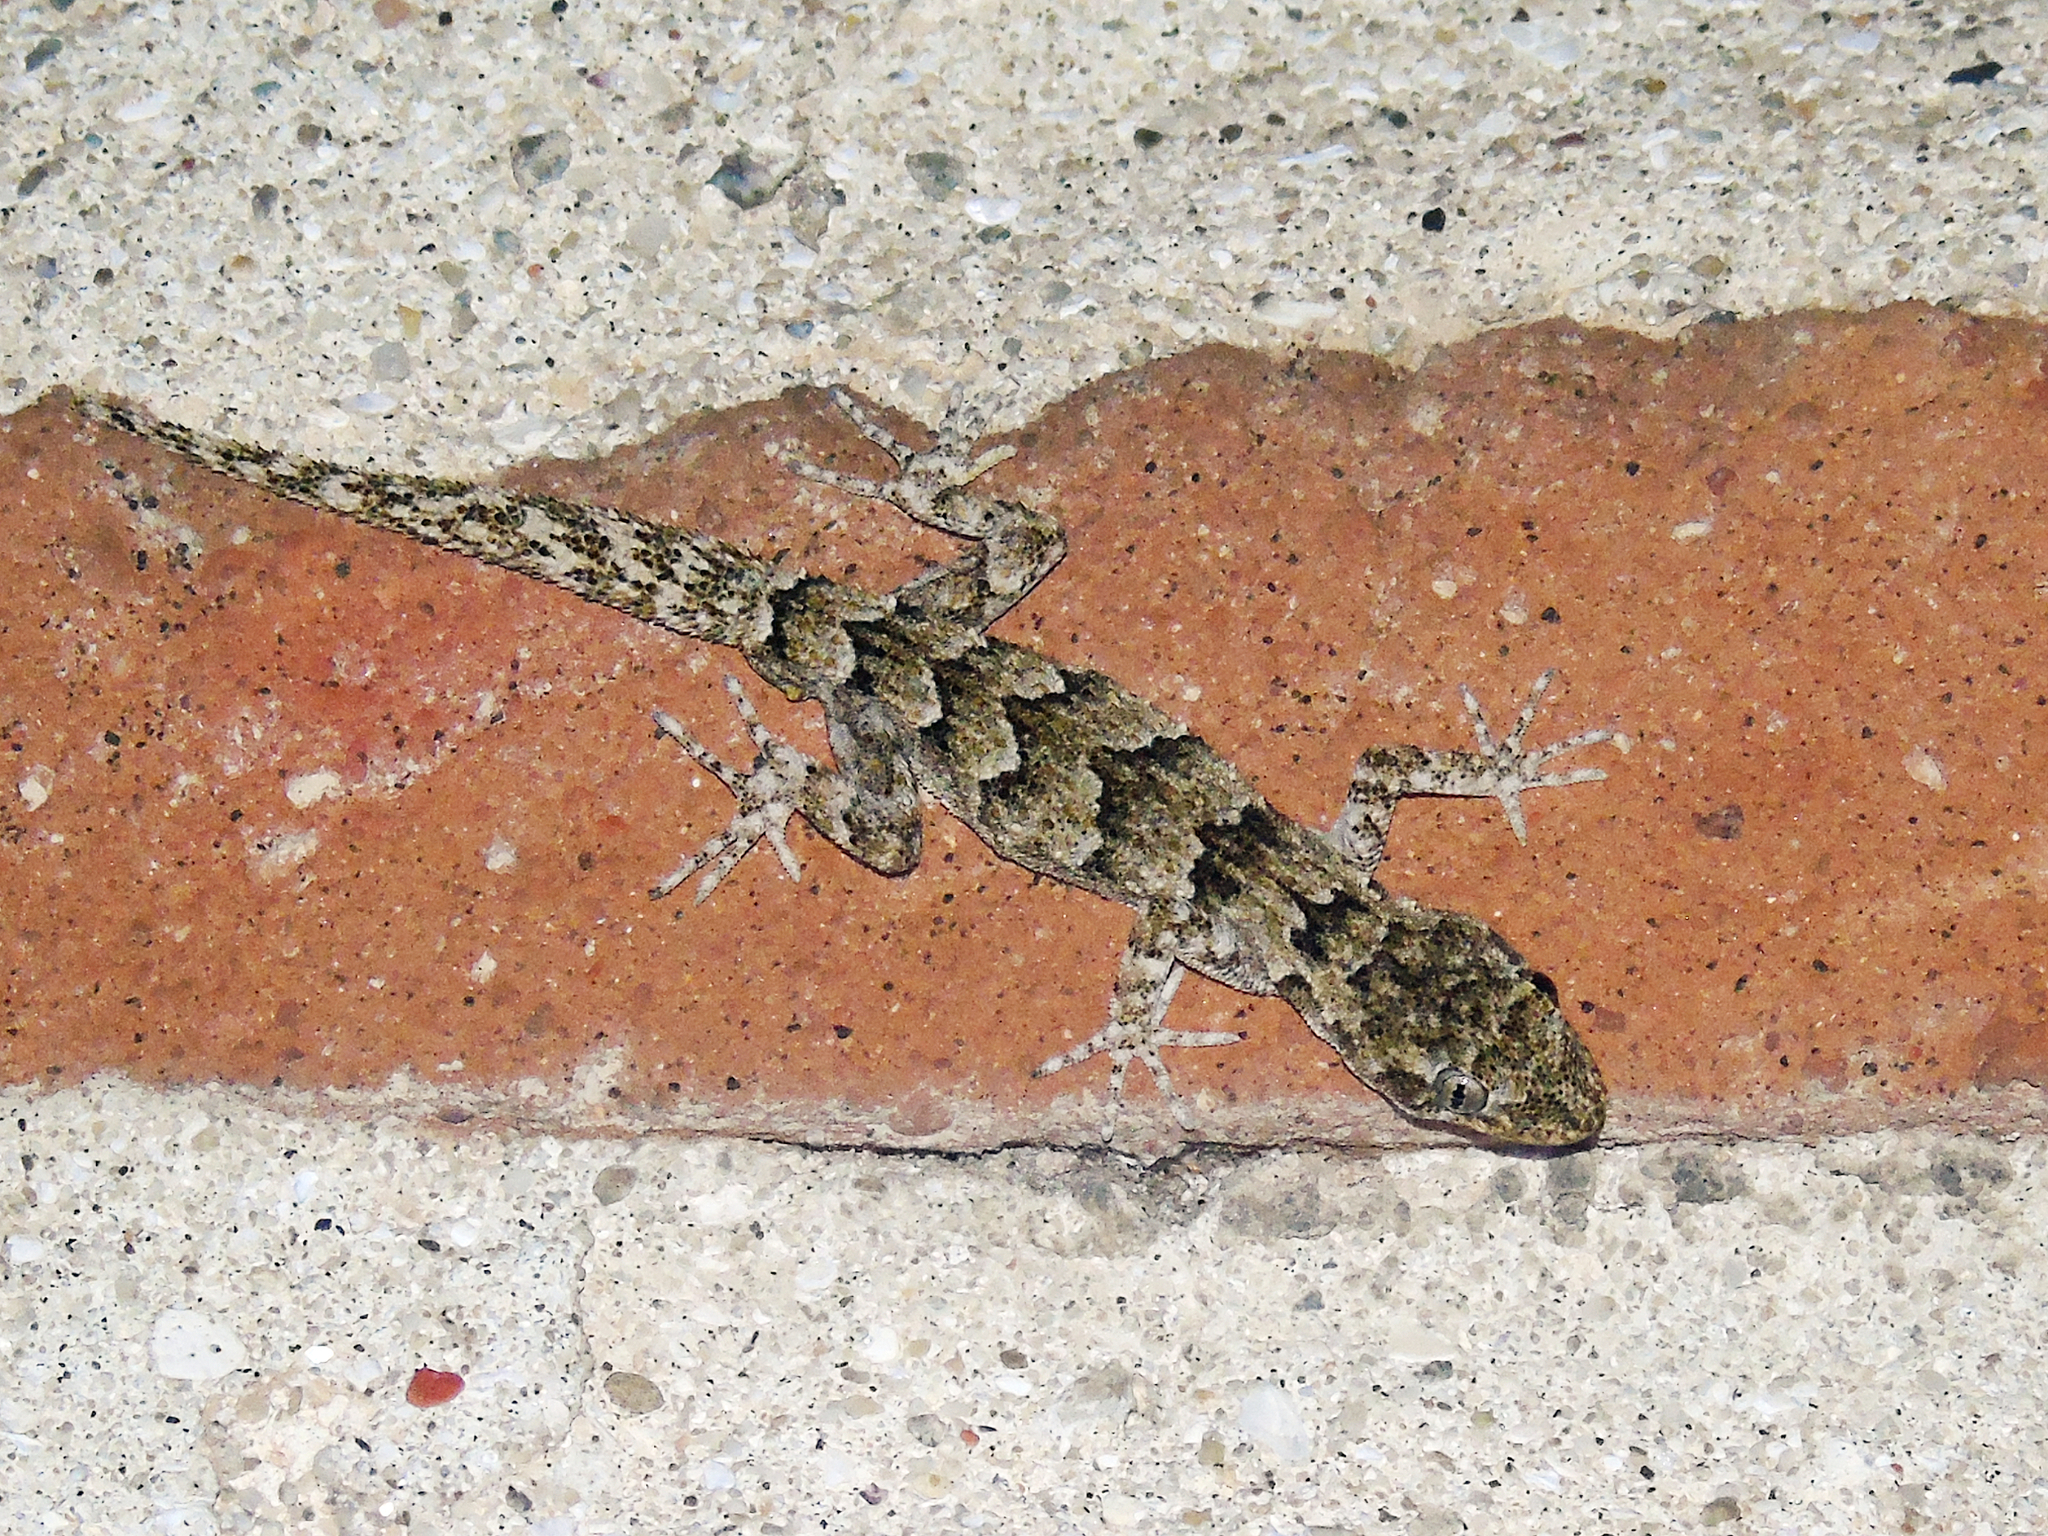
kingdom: Animalia
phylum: Chordata
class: Squamata
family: Gekkonidae
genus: Mediodactylus
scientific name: Mediodactylus danilewskii
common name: Bulgarian bent-toed gecko
